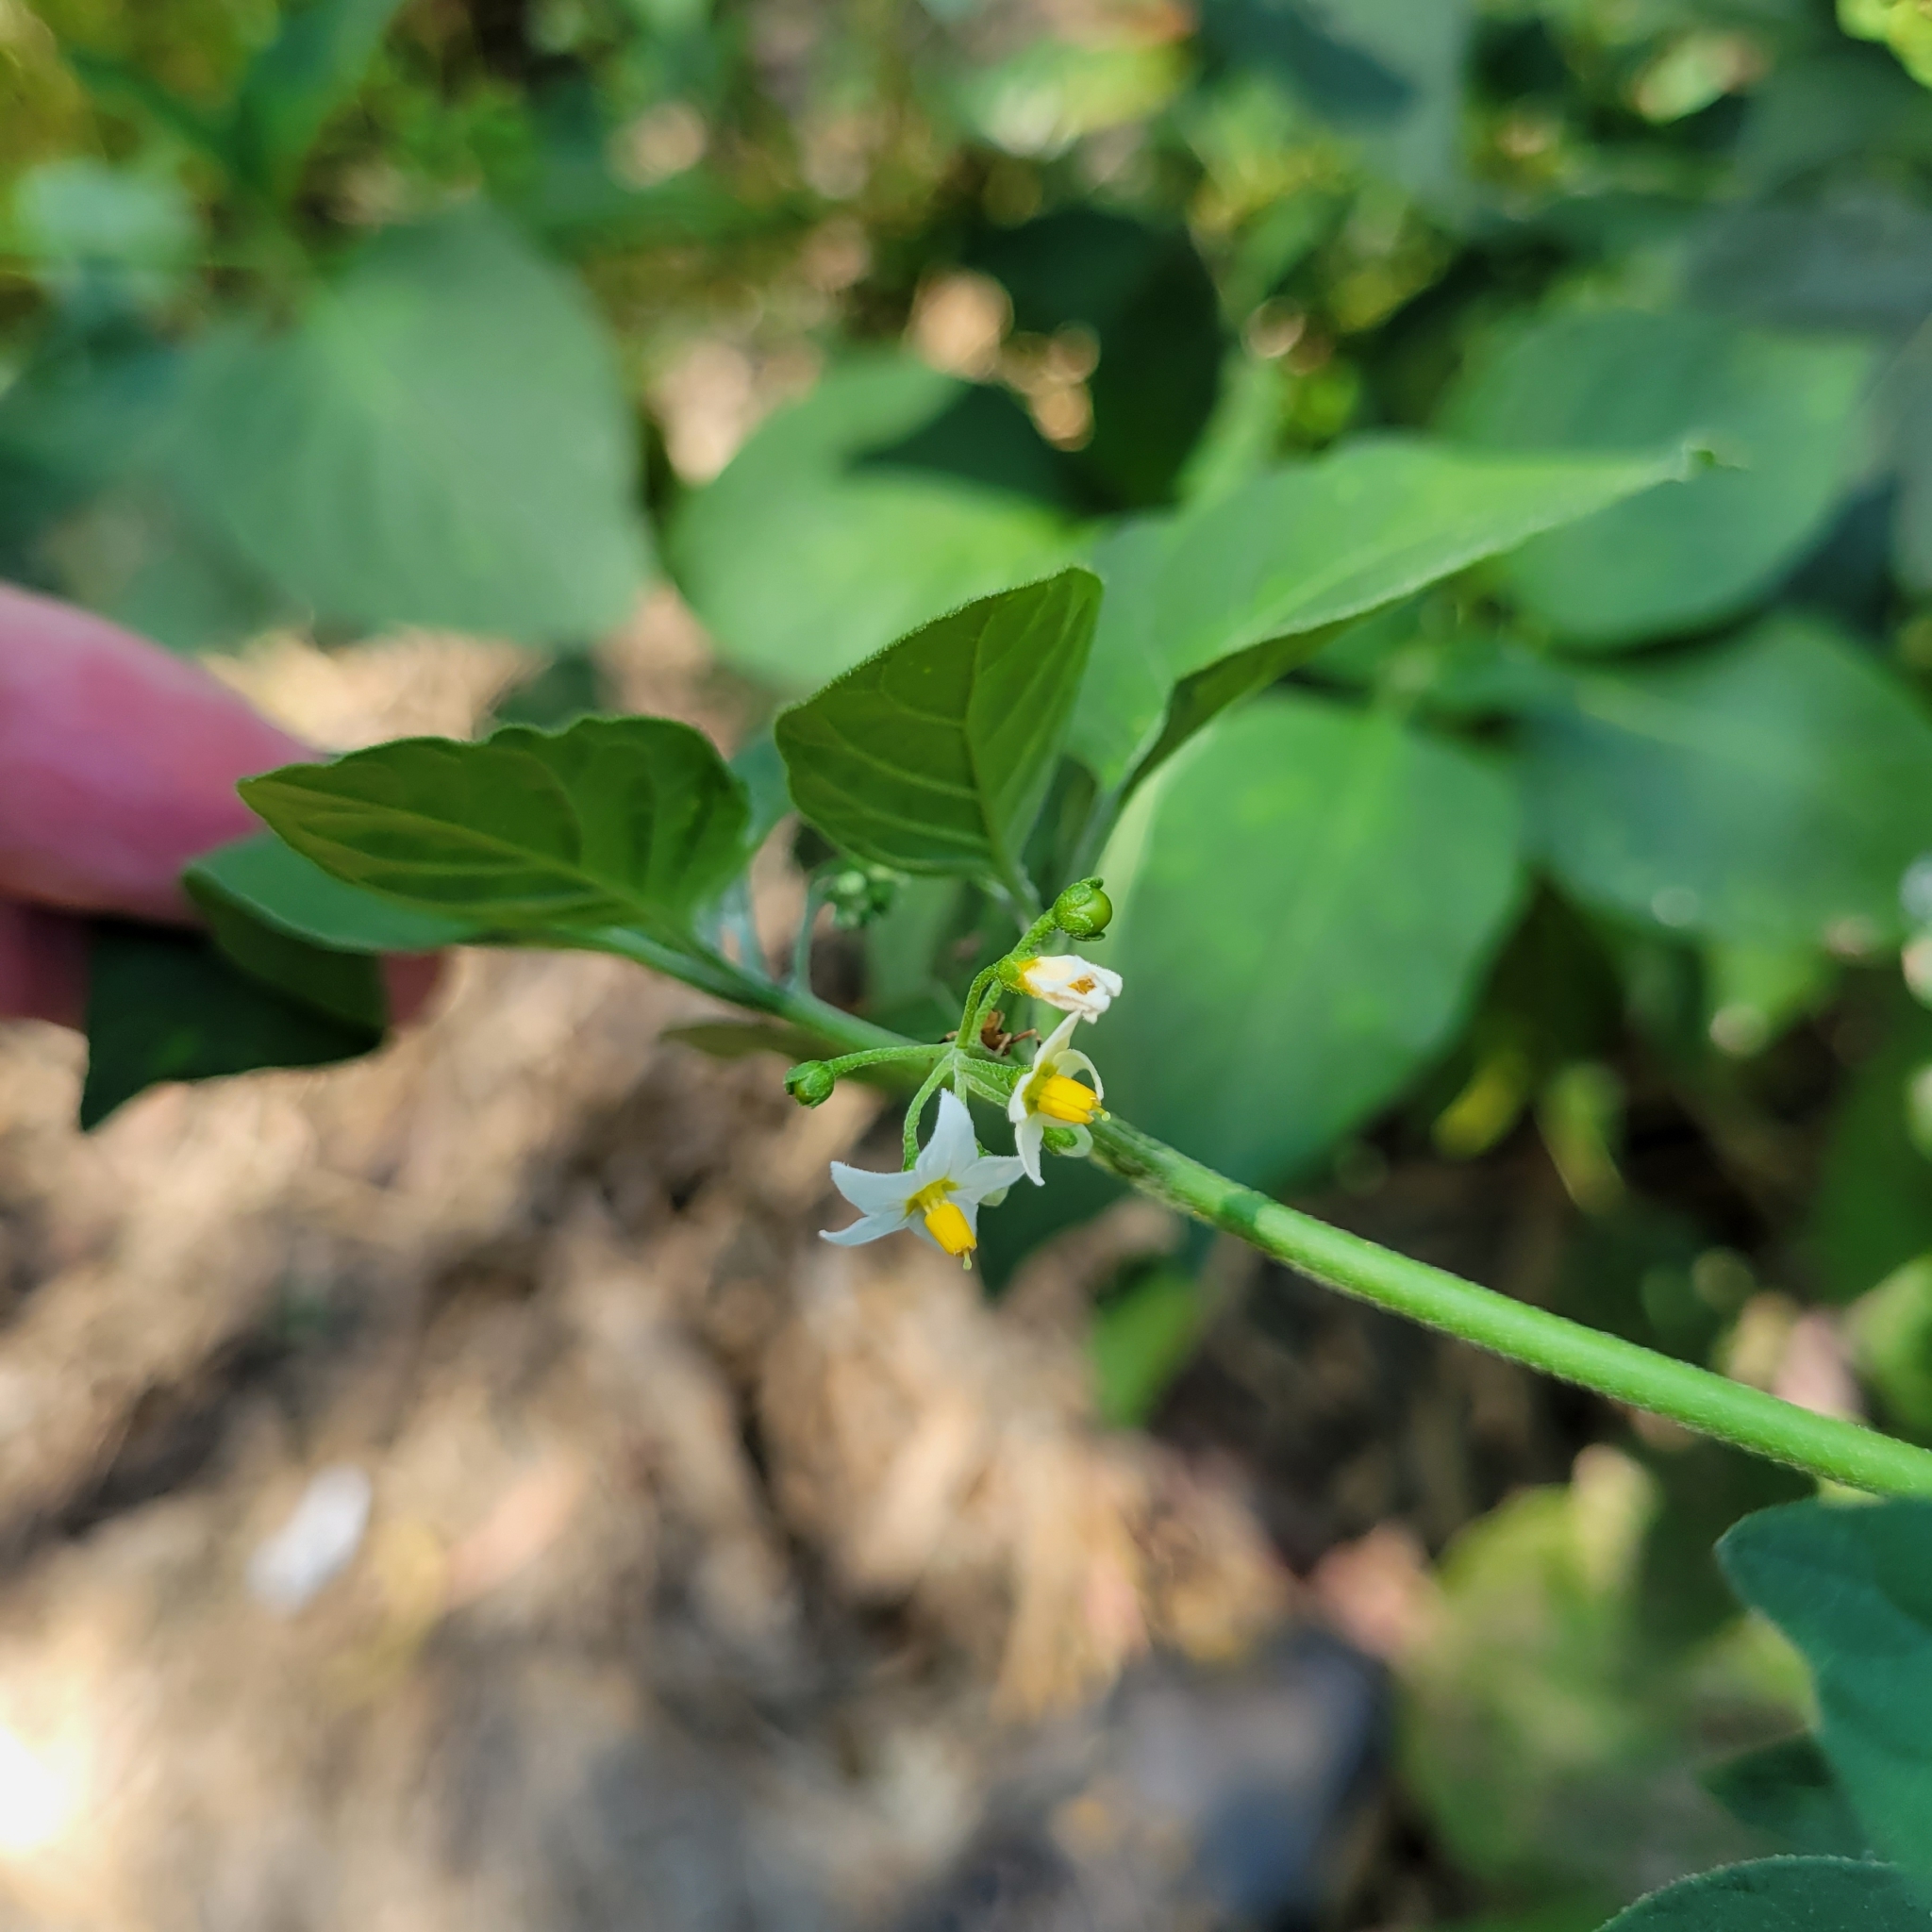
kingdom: Plantae
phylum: Tracheophyta
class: Magnoliopsida
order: Solanales
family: Solanaceae
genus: Solanum
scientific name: Solanum nigrum
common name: Black nightshade
